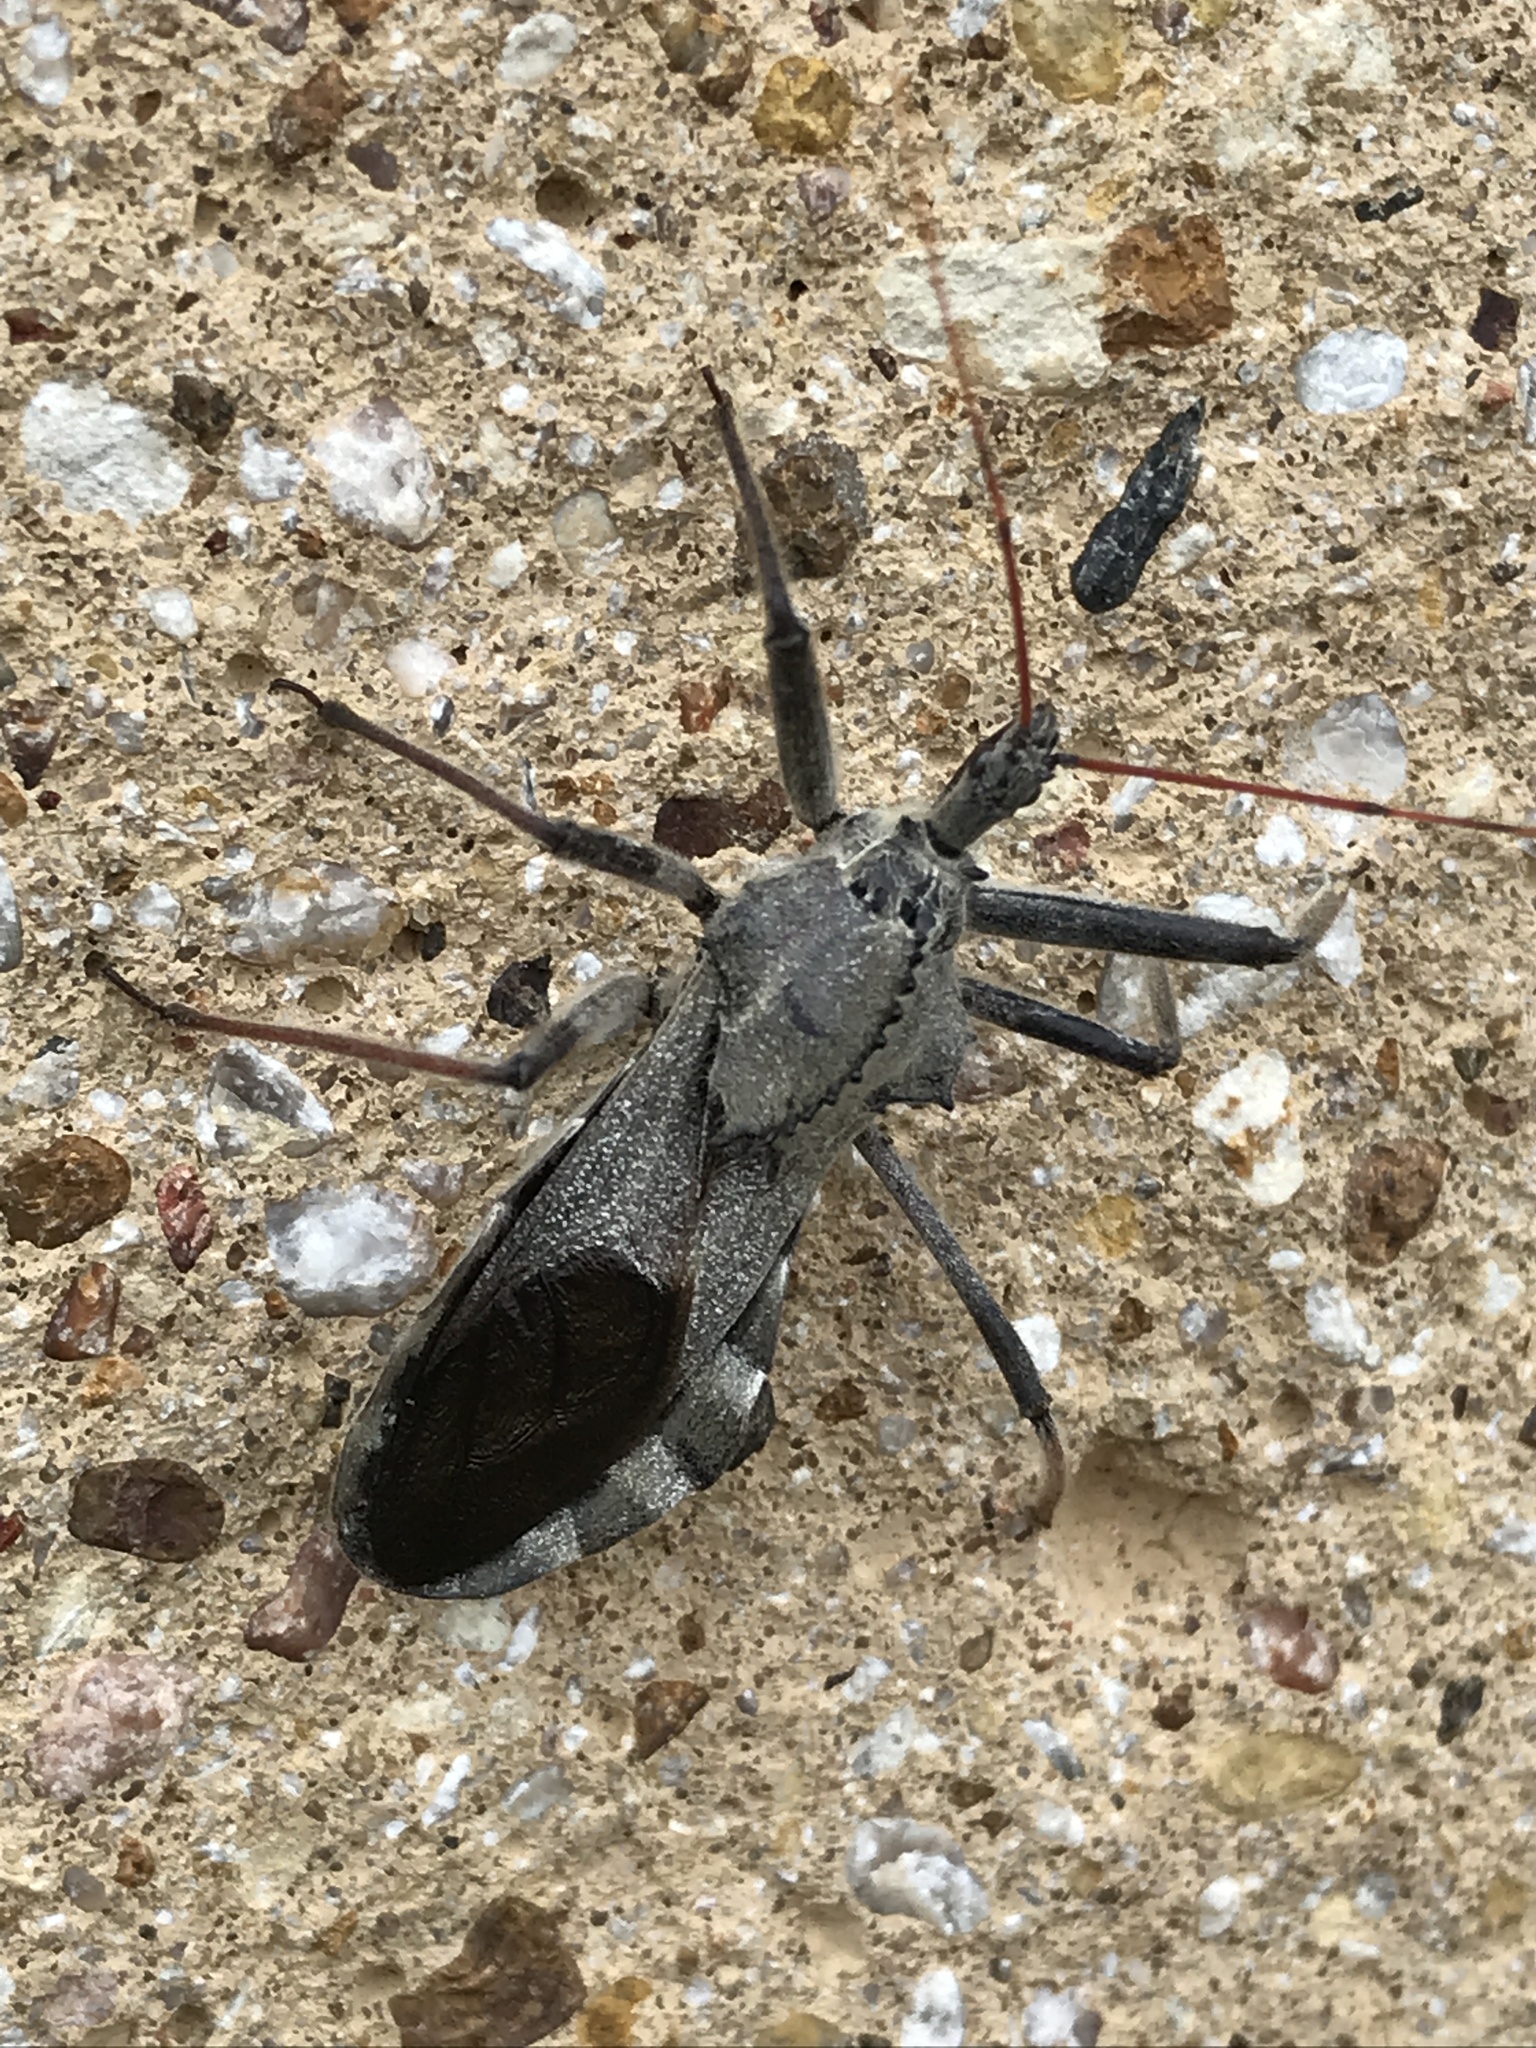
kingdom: Animalia
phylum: Arthropoda
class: Insecta
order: Hemiptera
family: Reduviidae
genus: Arilus
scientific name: Arilus cristatus
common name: North american wheel bug
